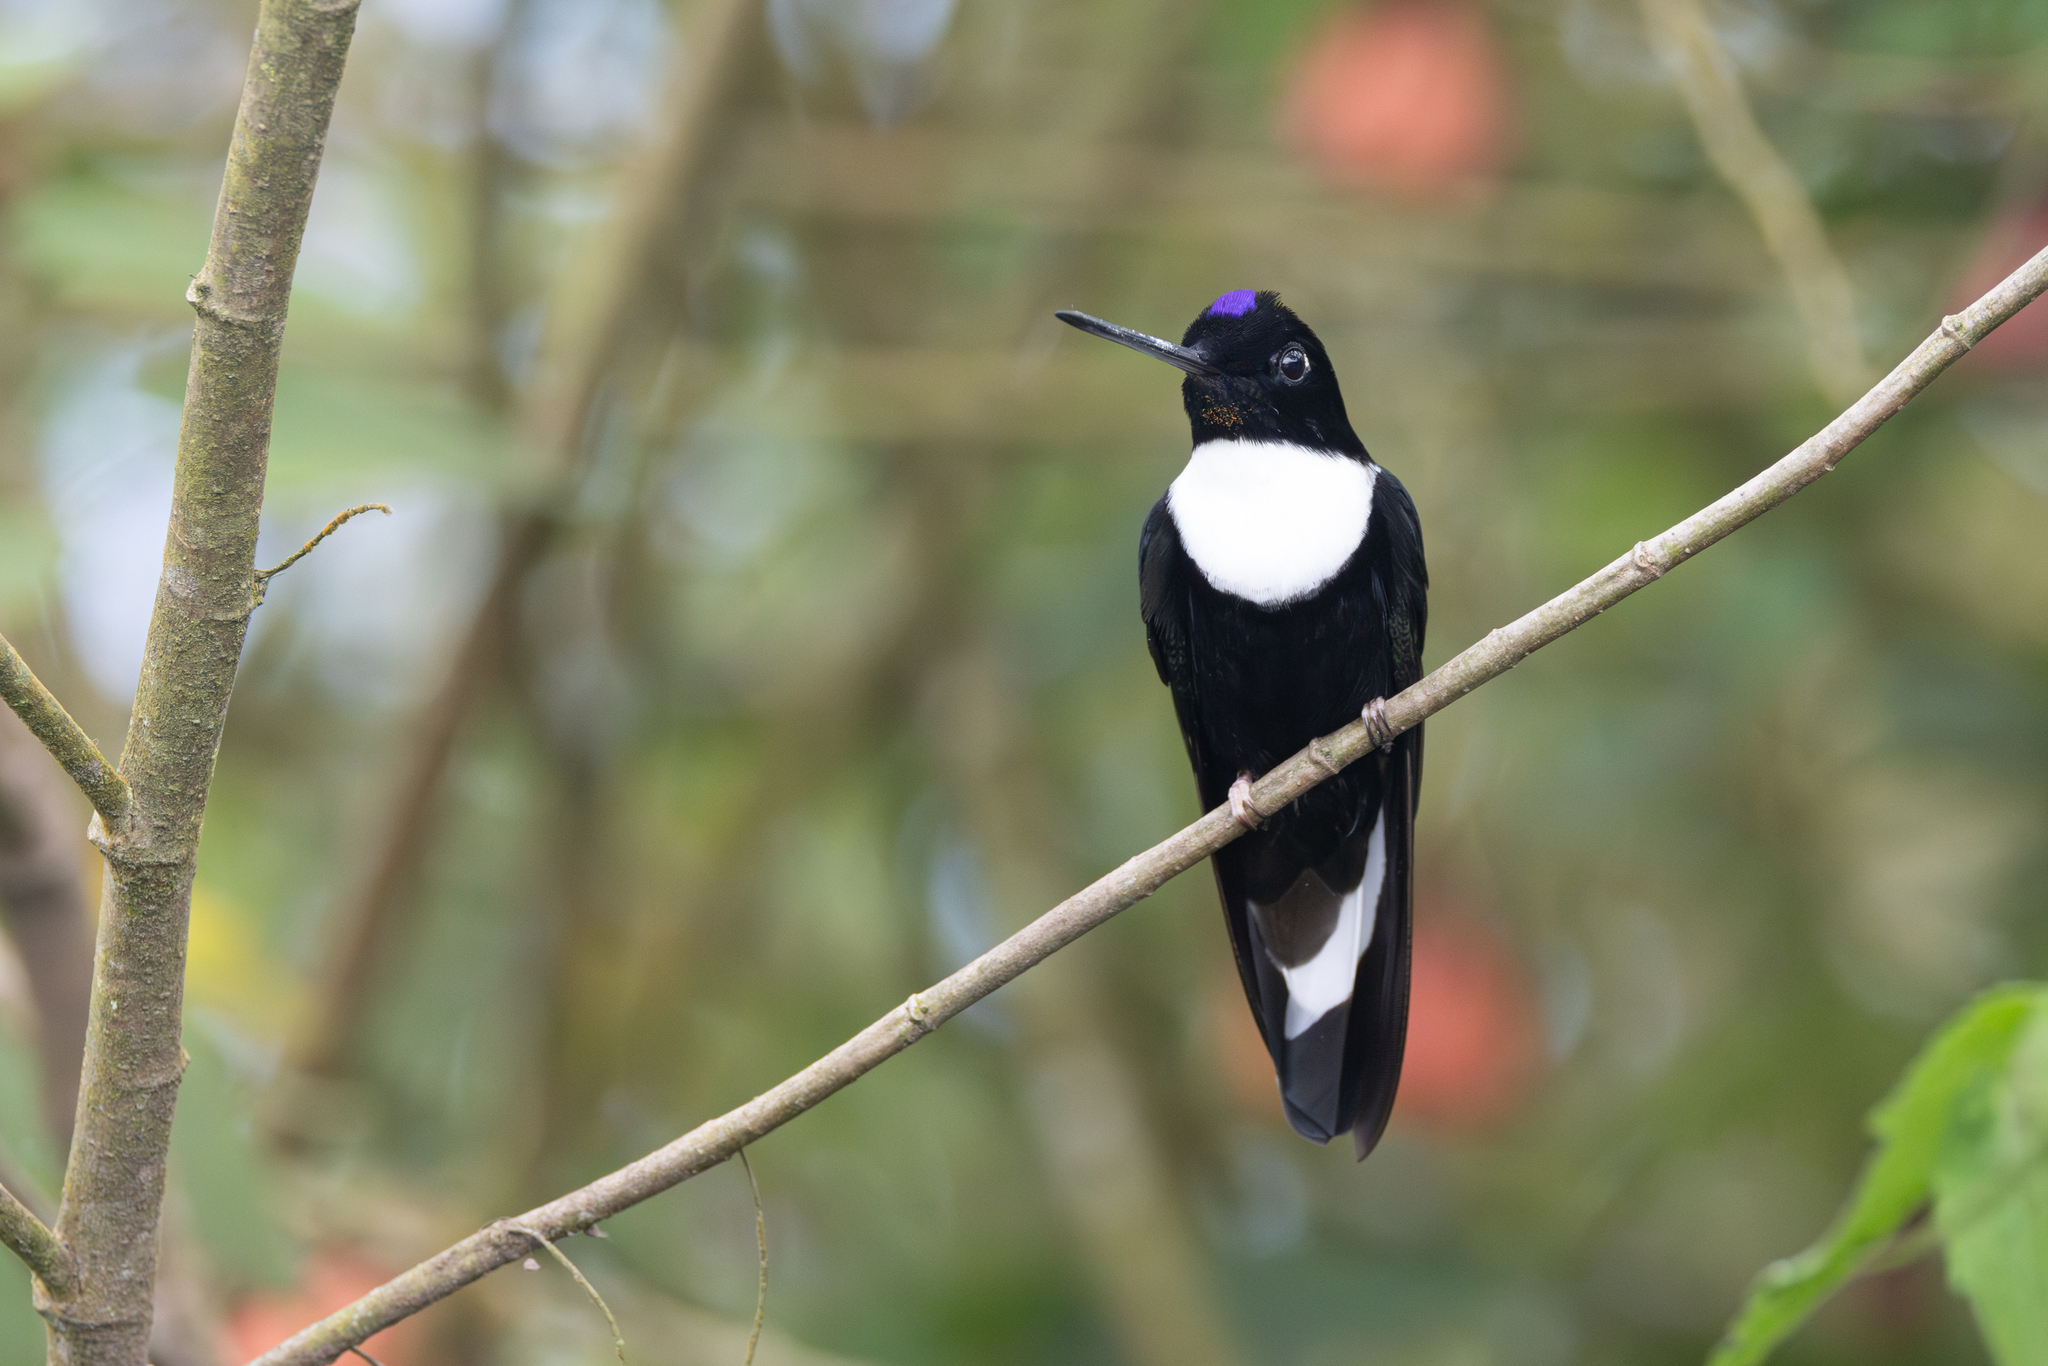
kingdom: Animalia
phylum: Chordata
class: Aves
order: Apodiformes
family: Trochilidae
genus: Coeligena
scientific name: Coeligena torquata
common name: Collared inca
